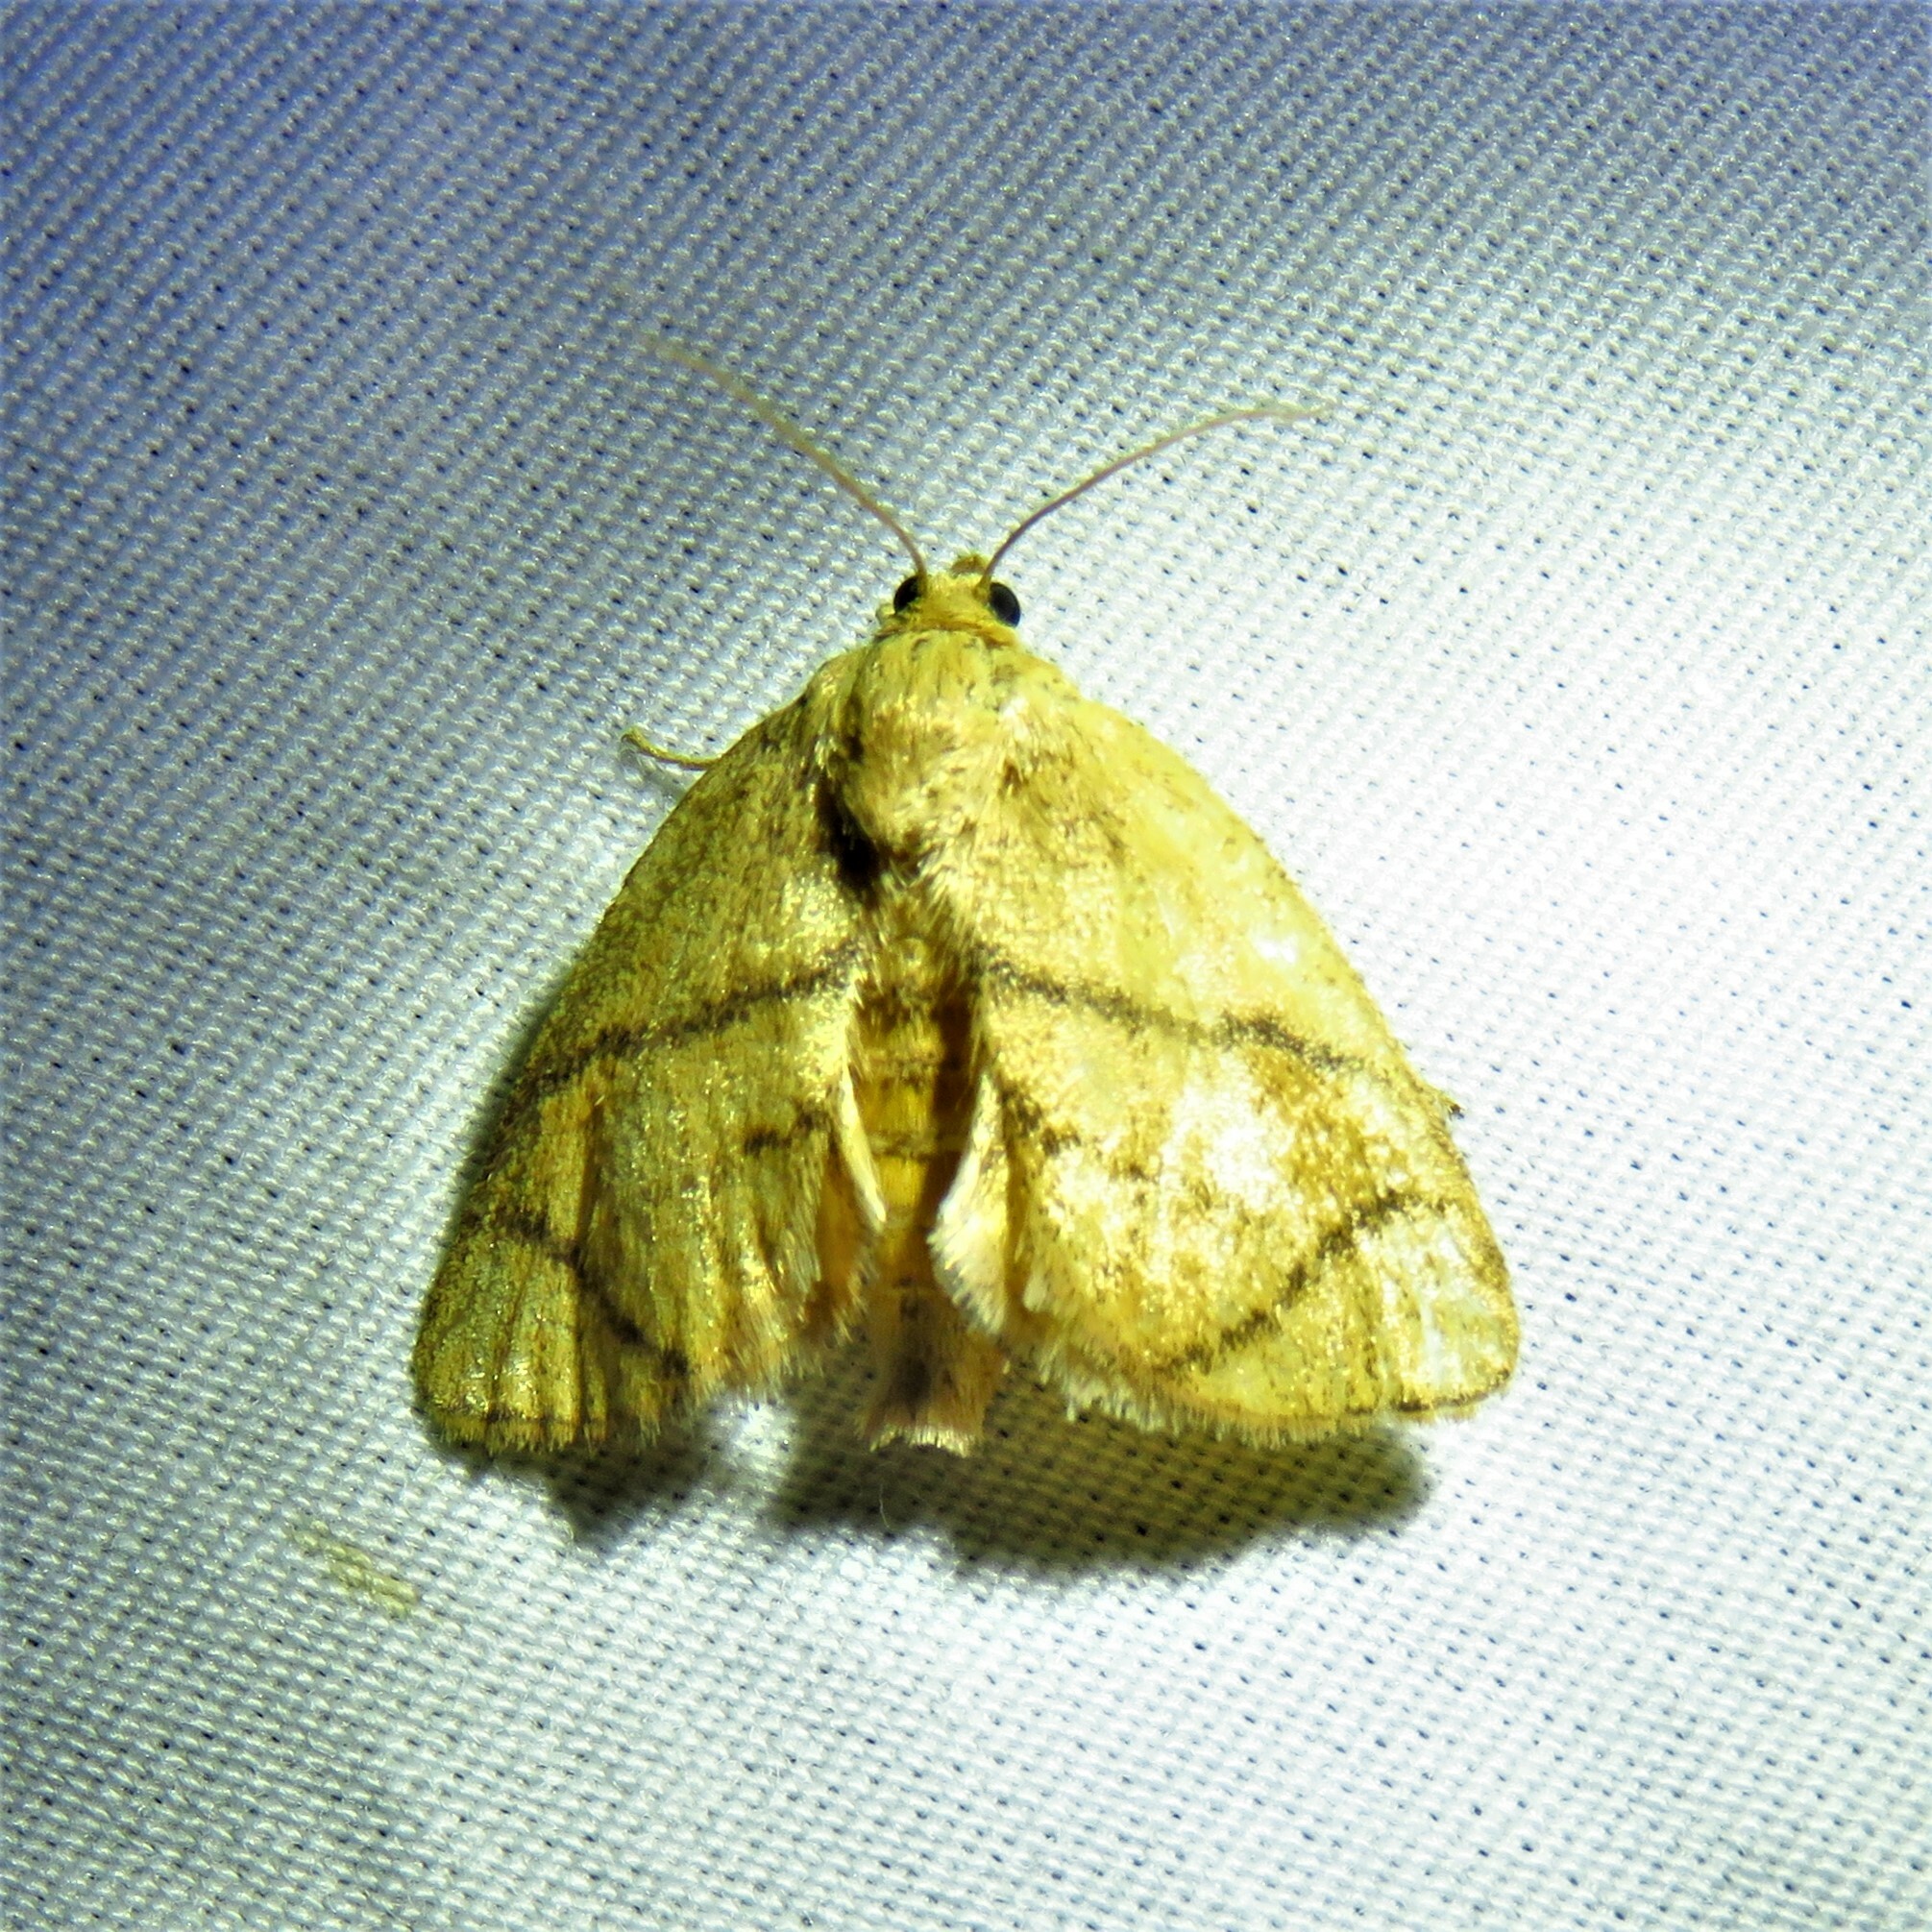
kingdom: Animalia
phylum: Arthropoda
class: Insecta
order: Lepidoptera
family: Limacodidae
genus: Apoda
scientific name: Apoda y-inversa
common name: Yellow-collared slug moth
